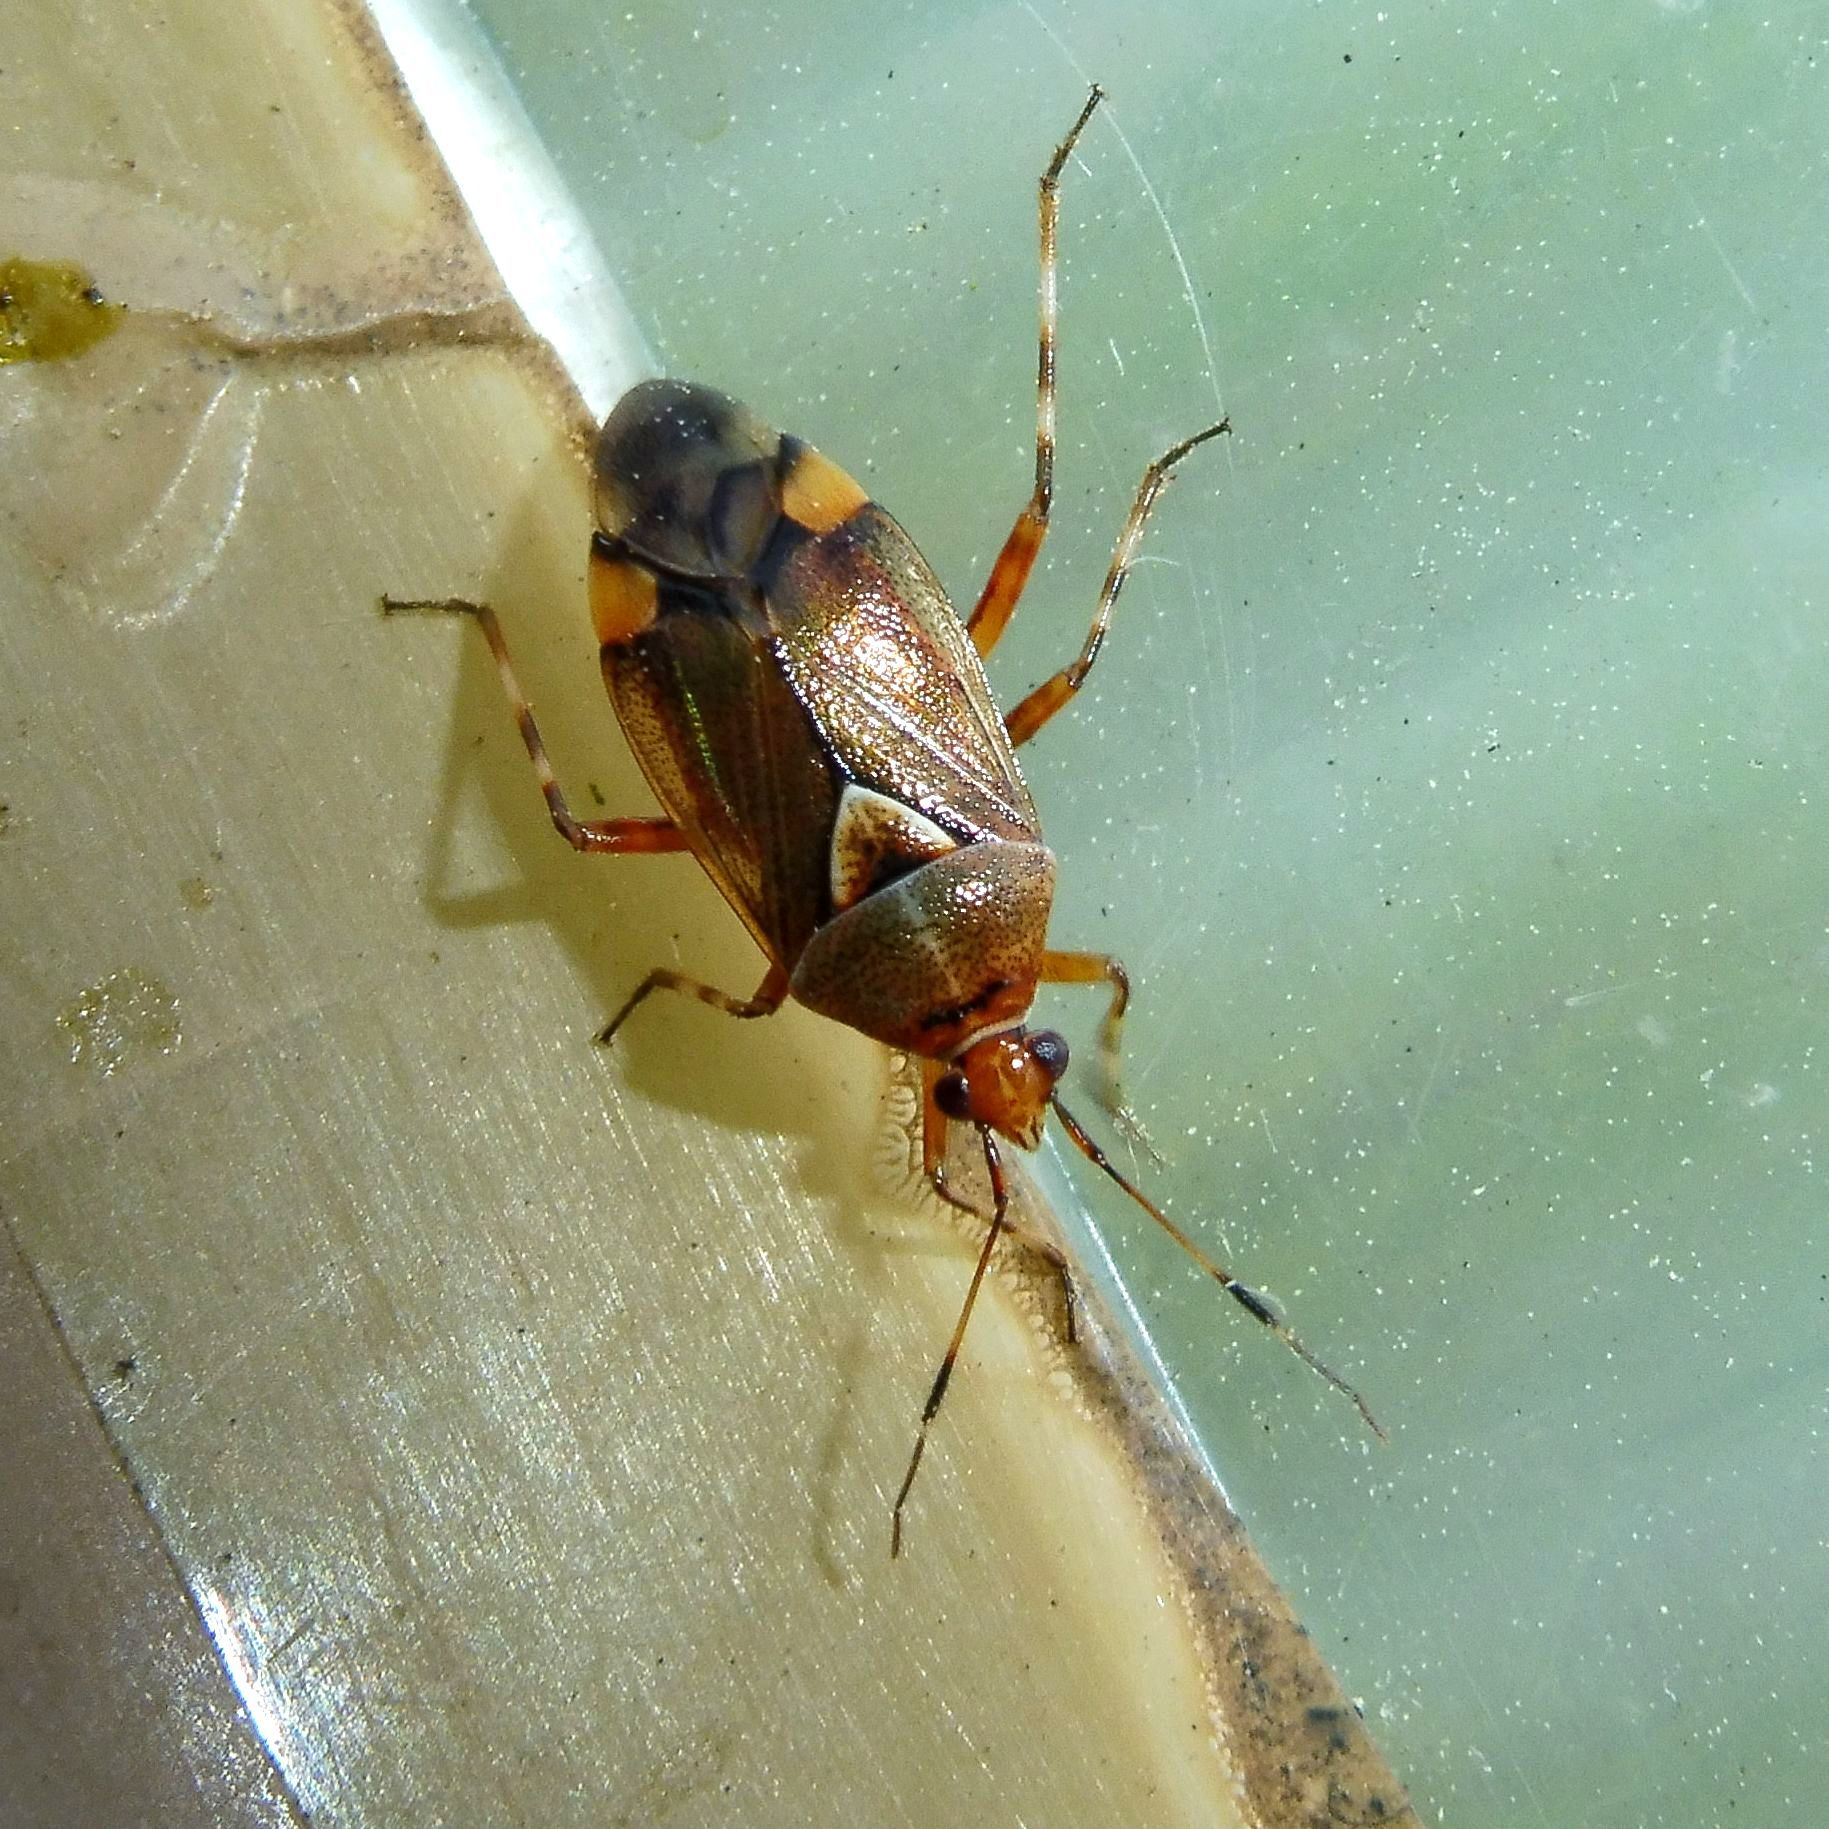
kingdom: Animalia
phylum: Arthropoda
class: Insecta
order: Hemiptera
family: Miridae
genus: Deraeocoris
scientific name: Deraeocoris flavilinea
